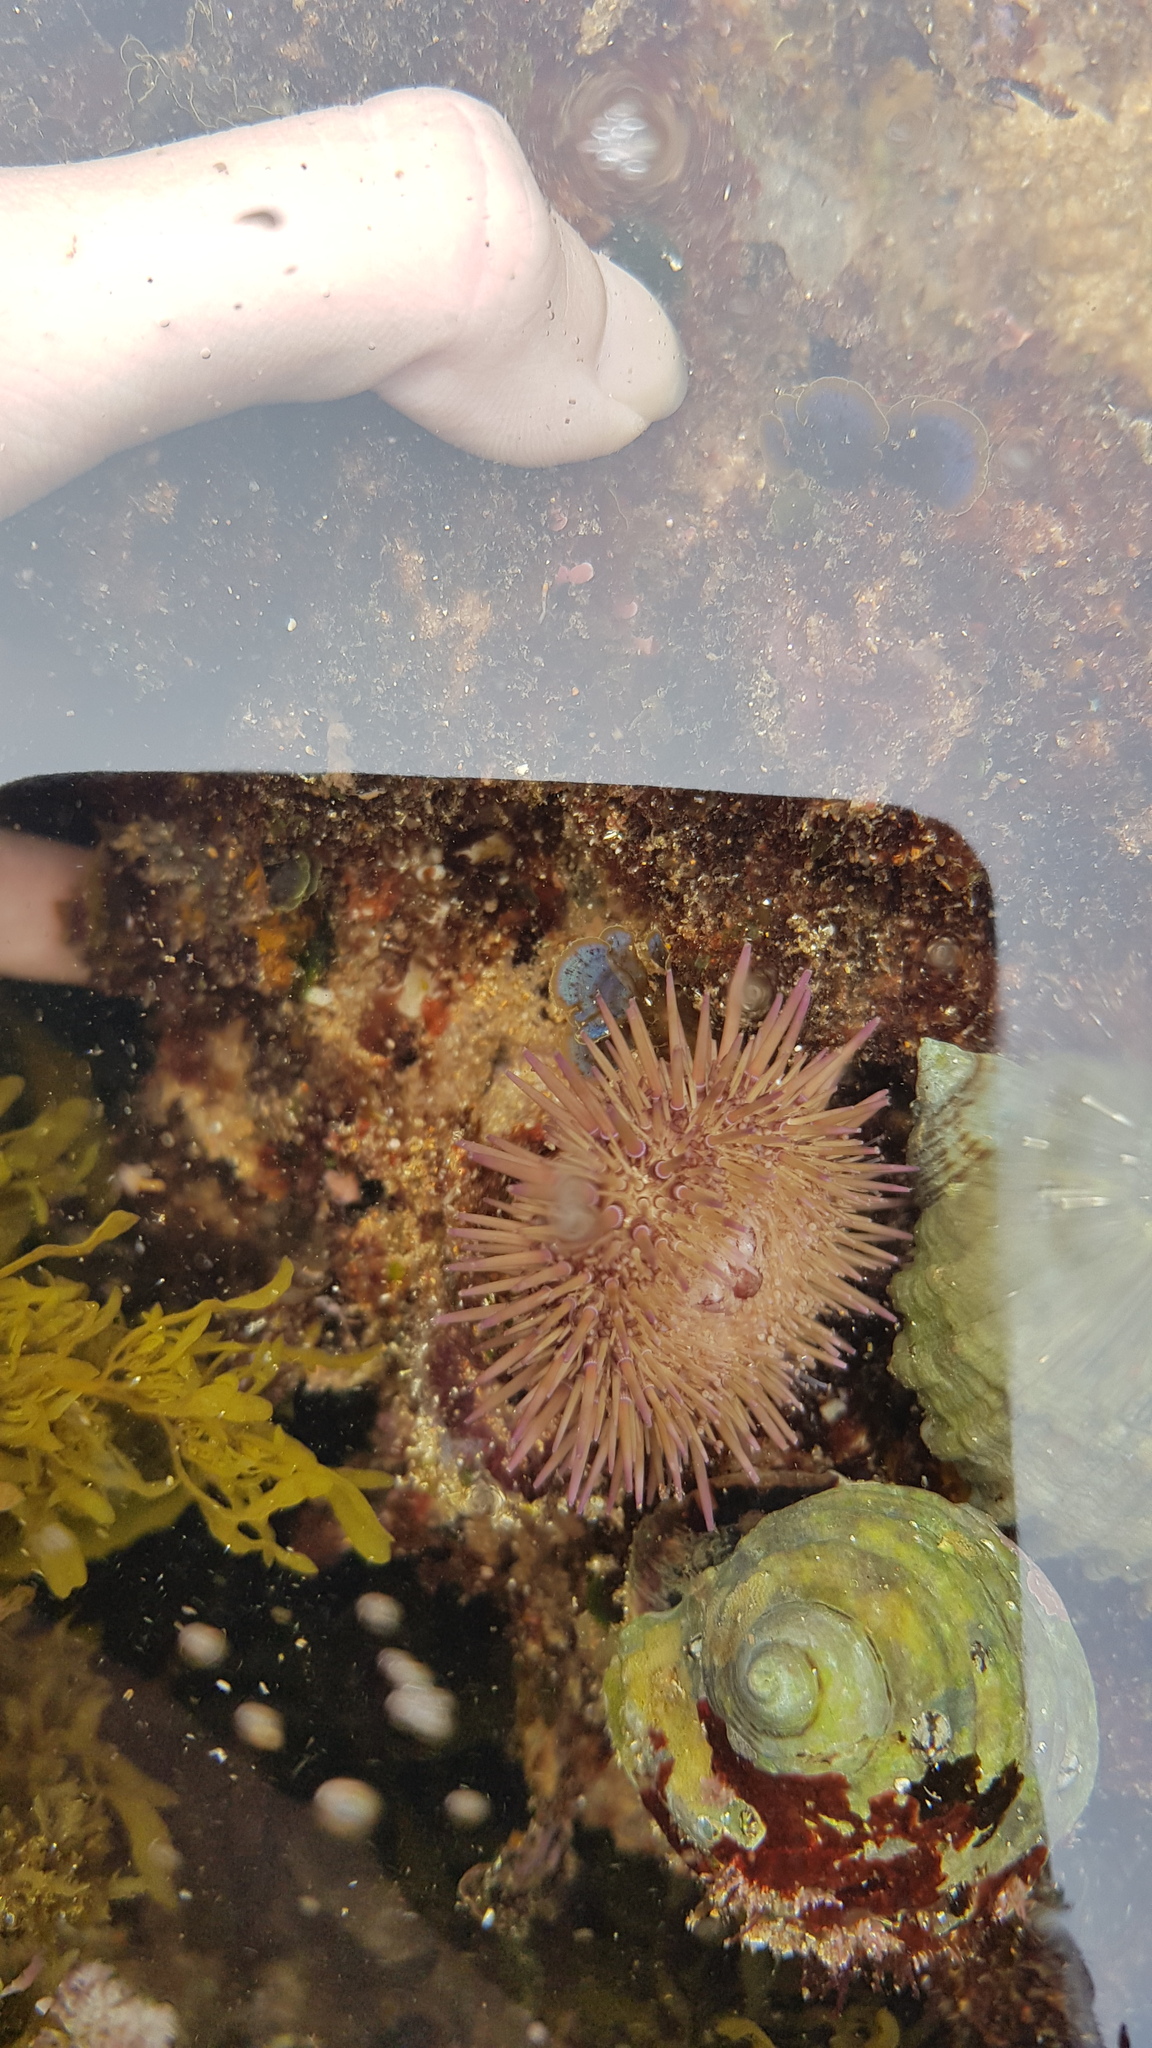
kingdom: Animalia
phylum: Echinodermata
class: Echinoidea
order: Camarodonta
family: Echinometridae
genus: Heliocidaris
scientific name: Heliocidaris erythrogramma
